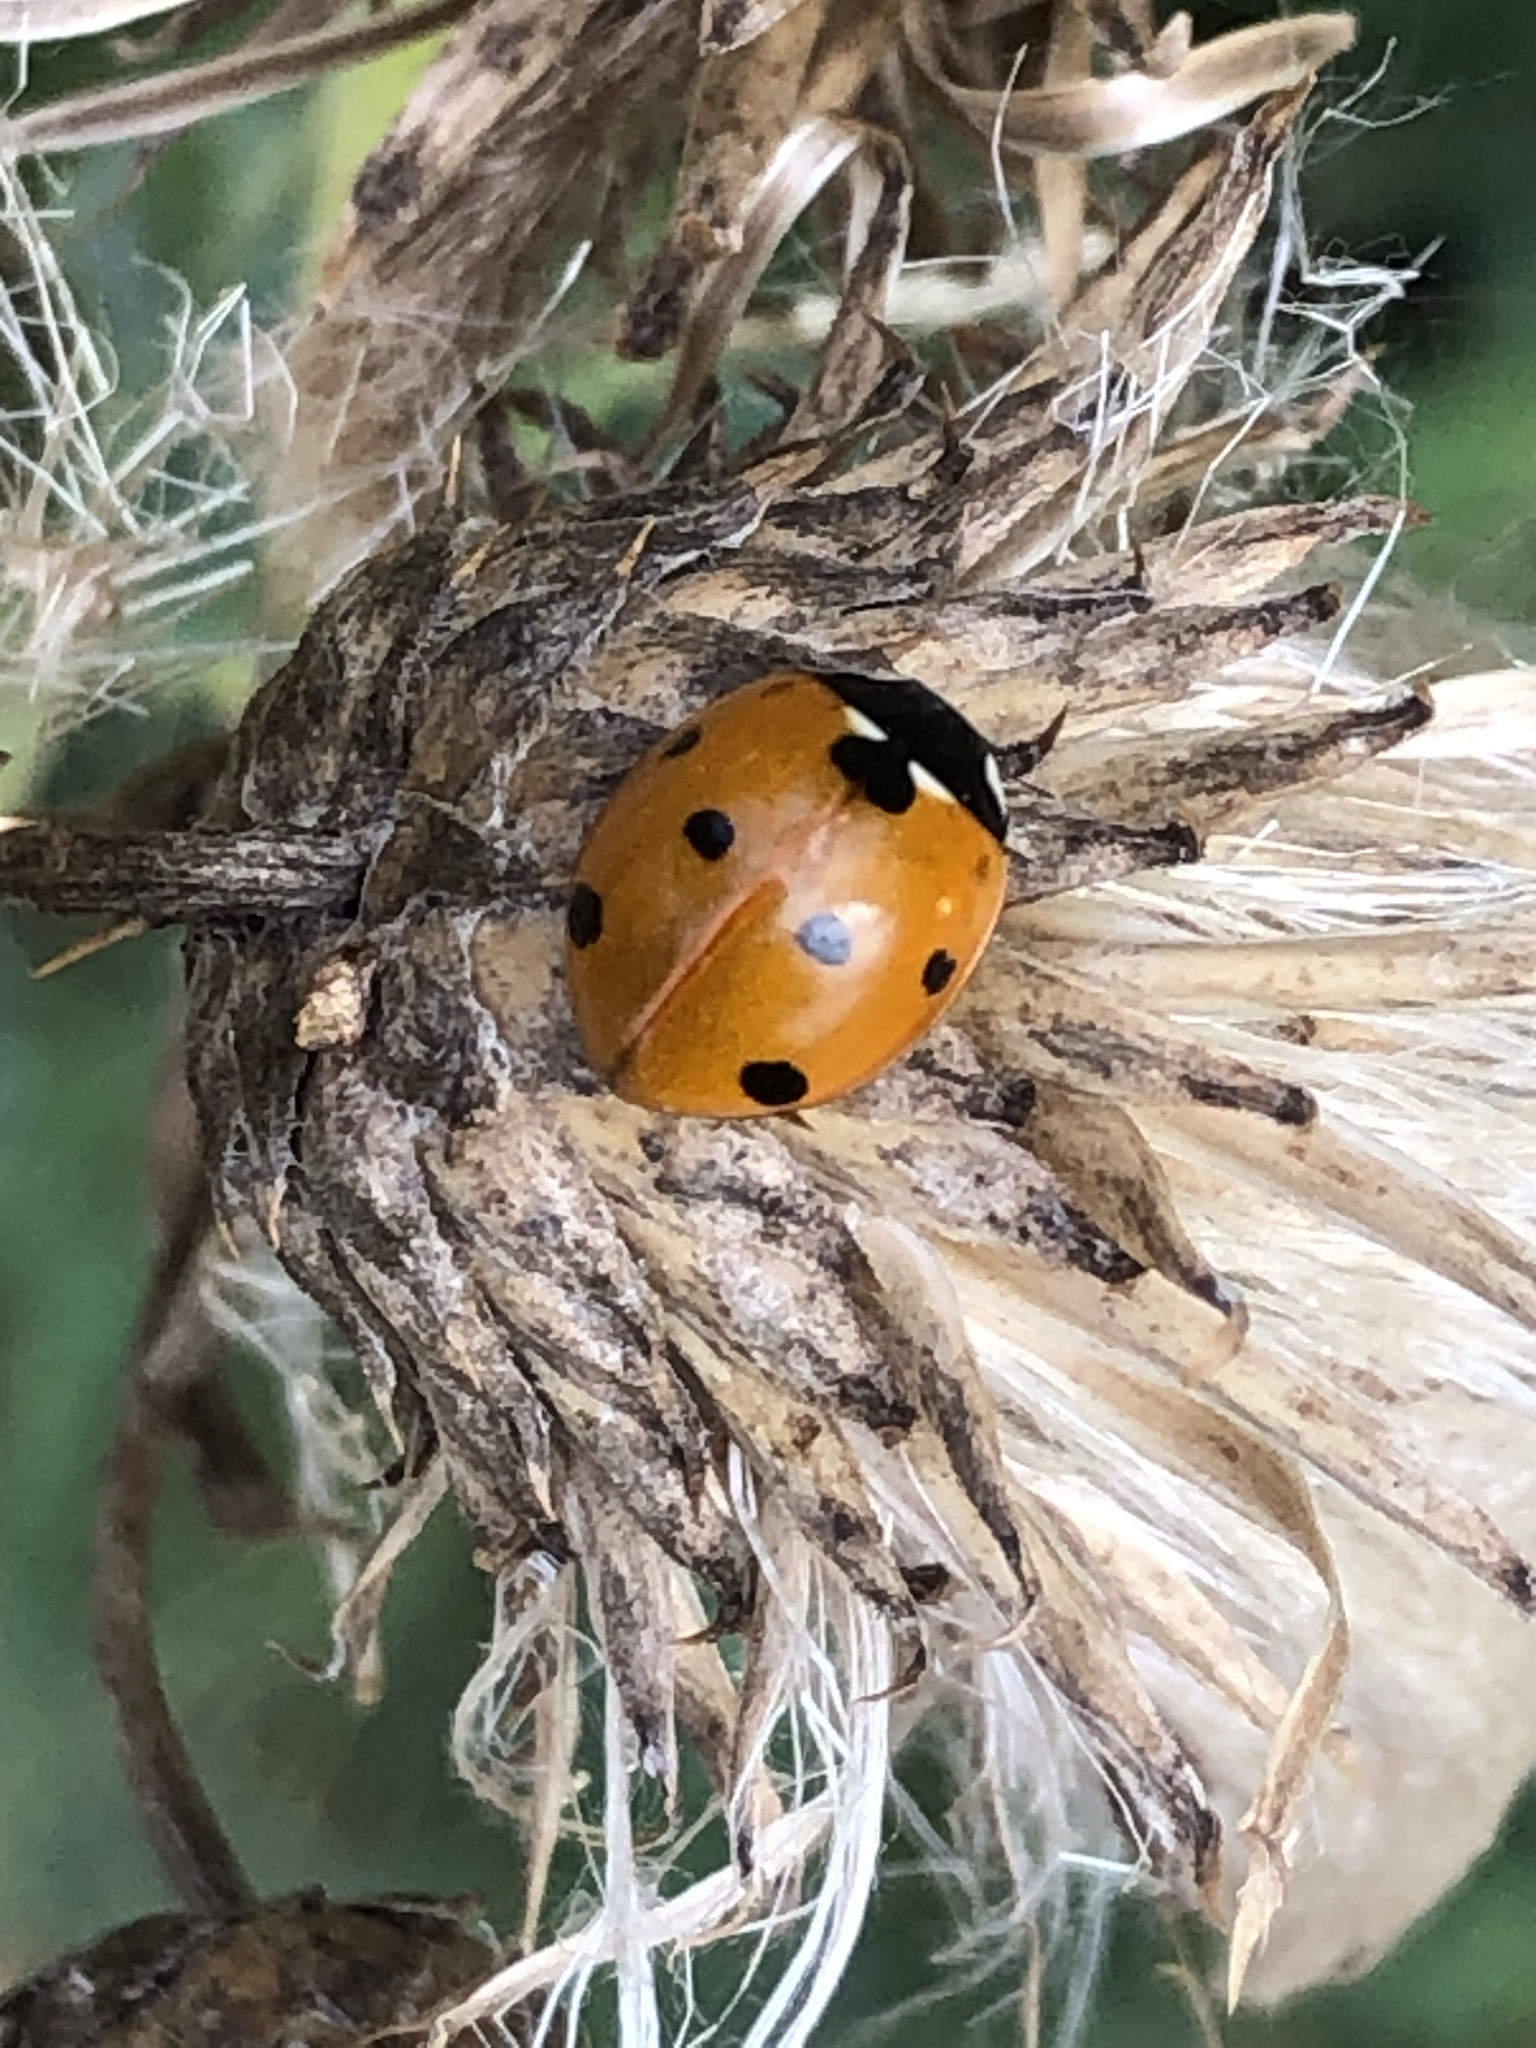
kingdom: Animalia
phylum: Arthropoda
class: Insecta
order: Coleoptera
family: Coccinellidae
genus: Coccinella
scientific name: Coccinella septempunctata
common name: Sevenspotted lady beetle
